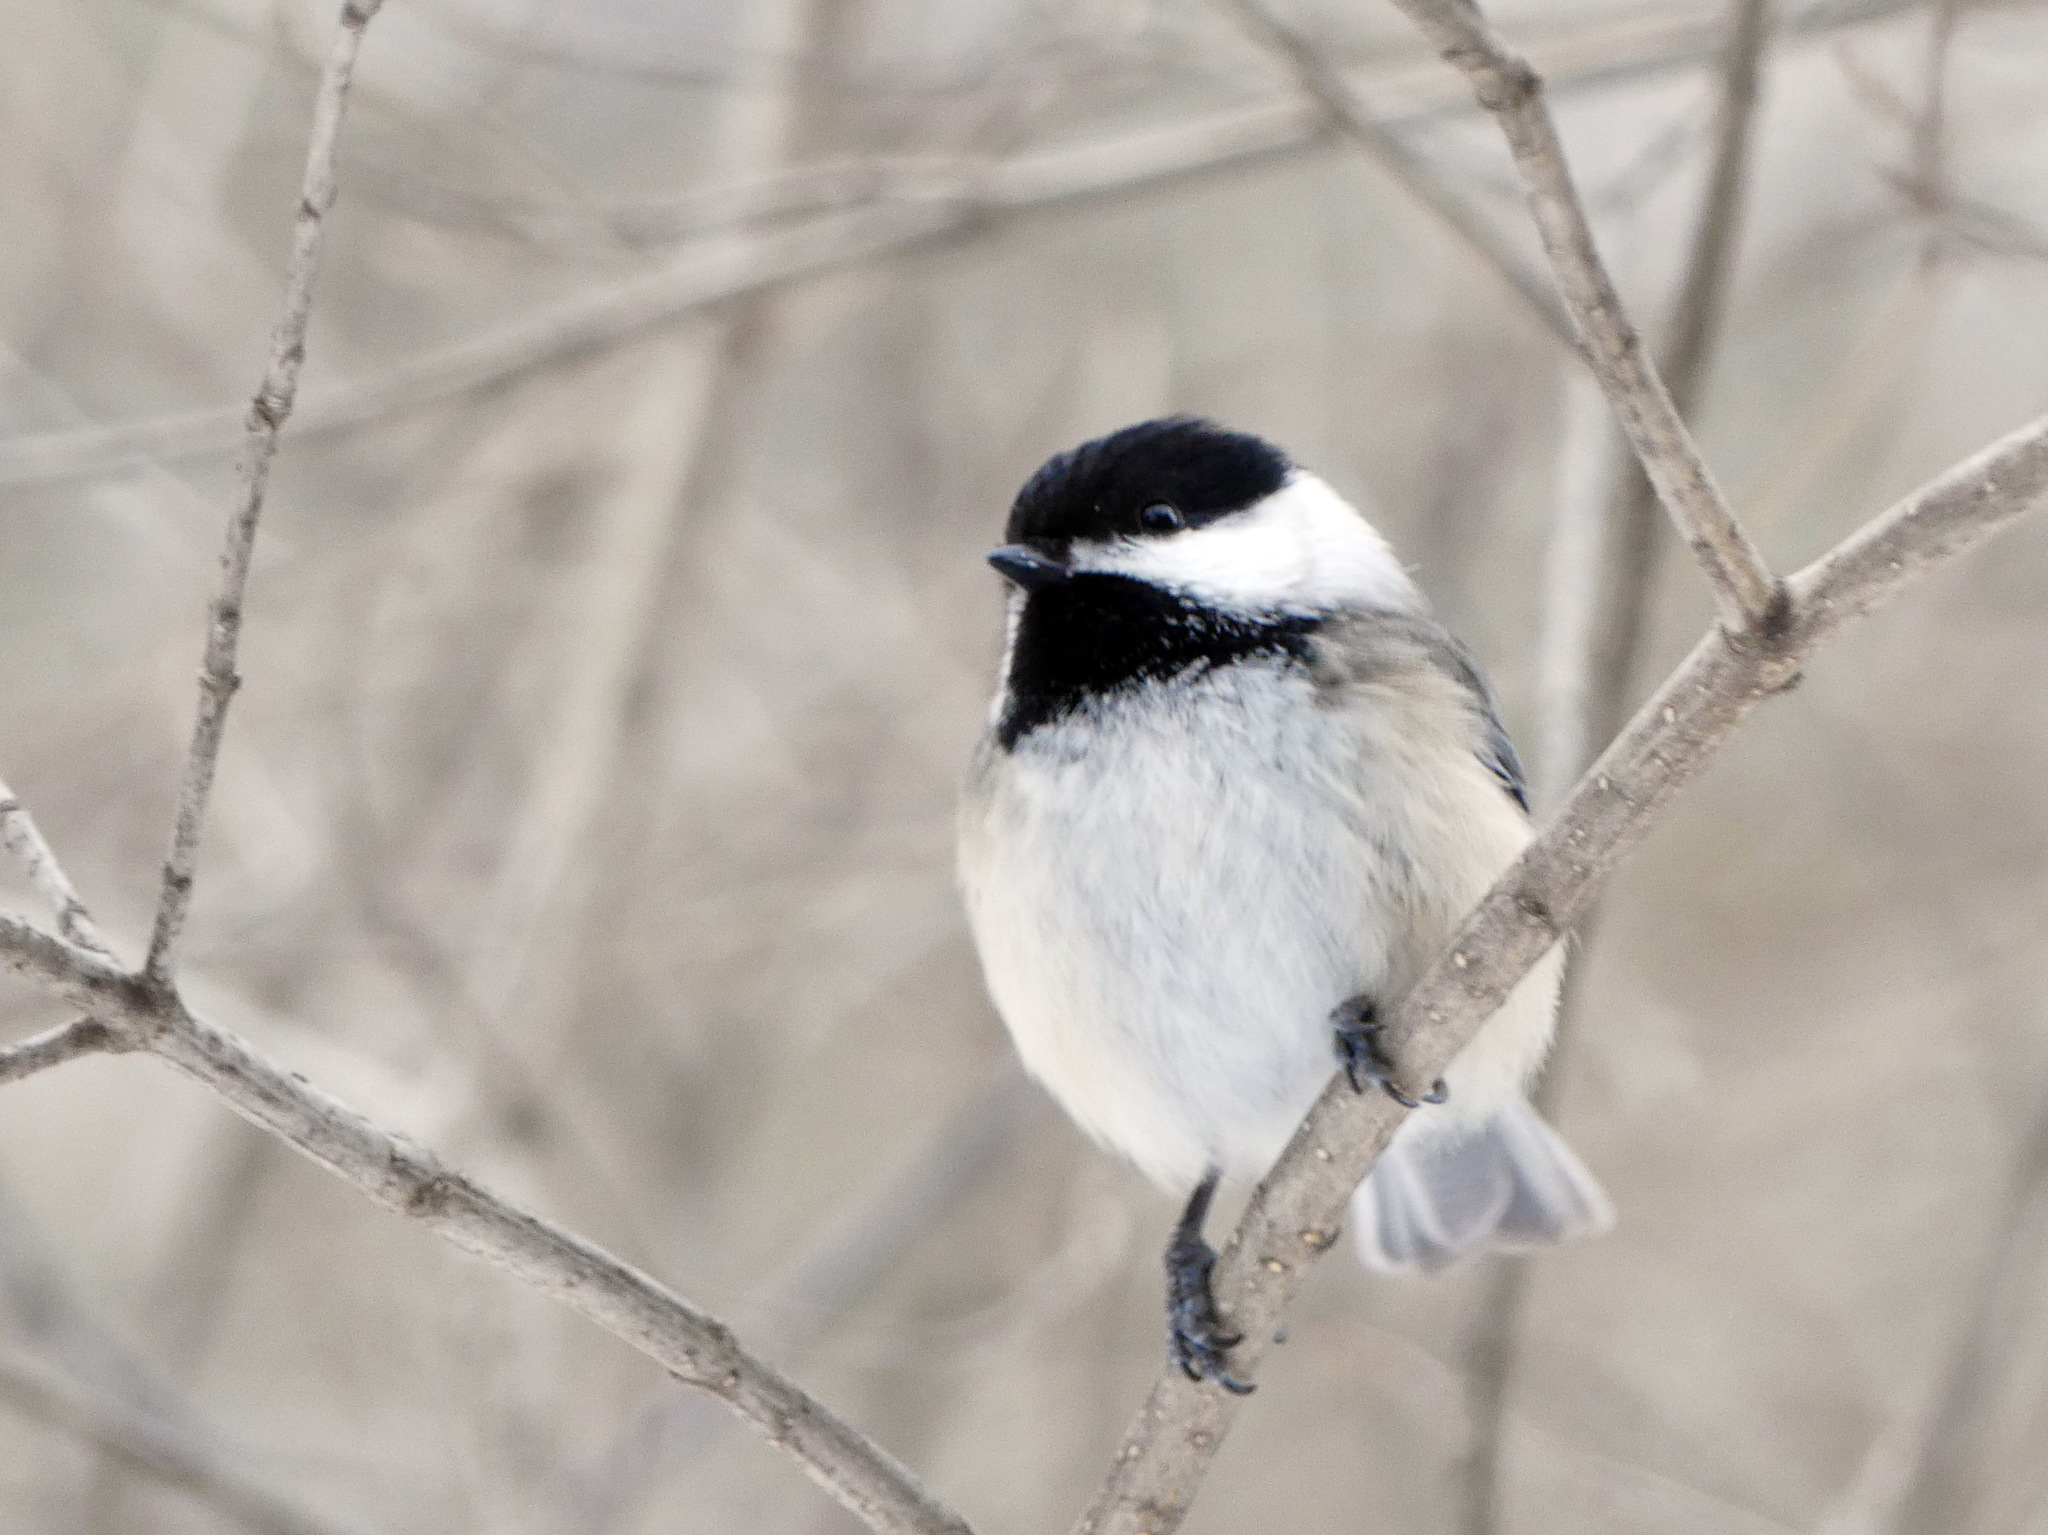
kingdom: Animalia
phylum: Chordata
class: Aves
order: Passeriformes
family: Paridae
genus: Poecile
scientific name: Poecile atricapillus
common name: Black-capped chickadee
